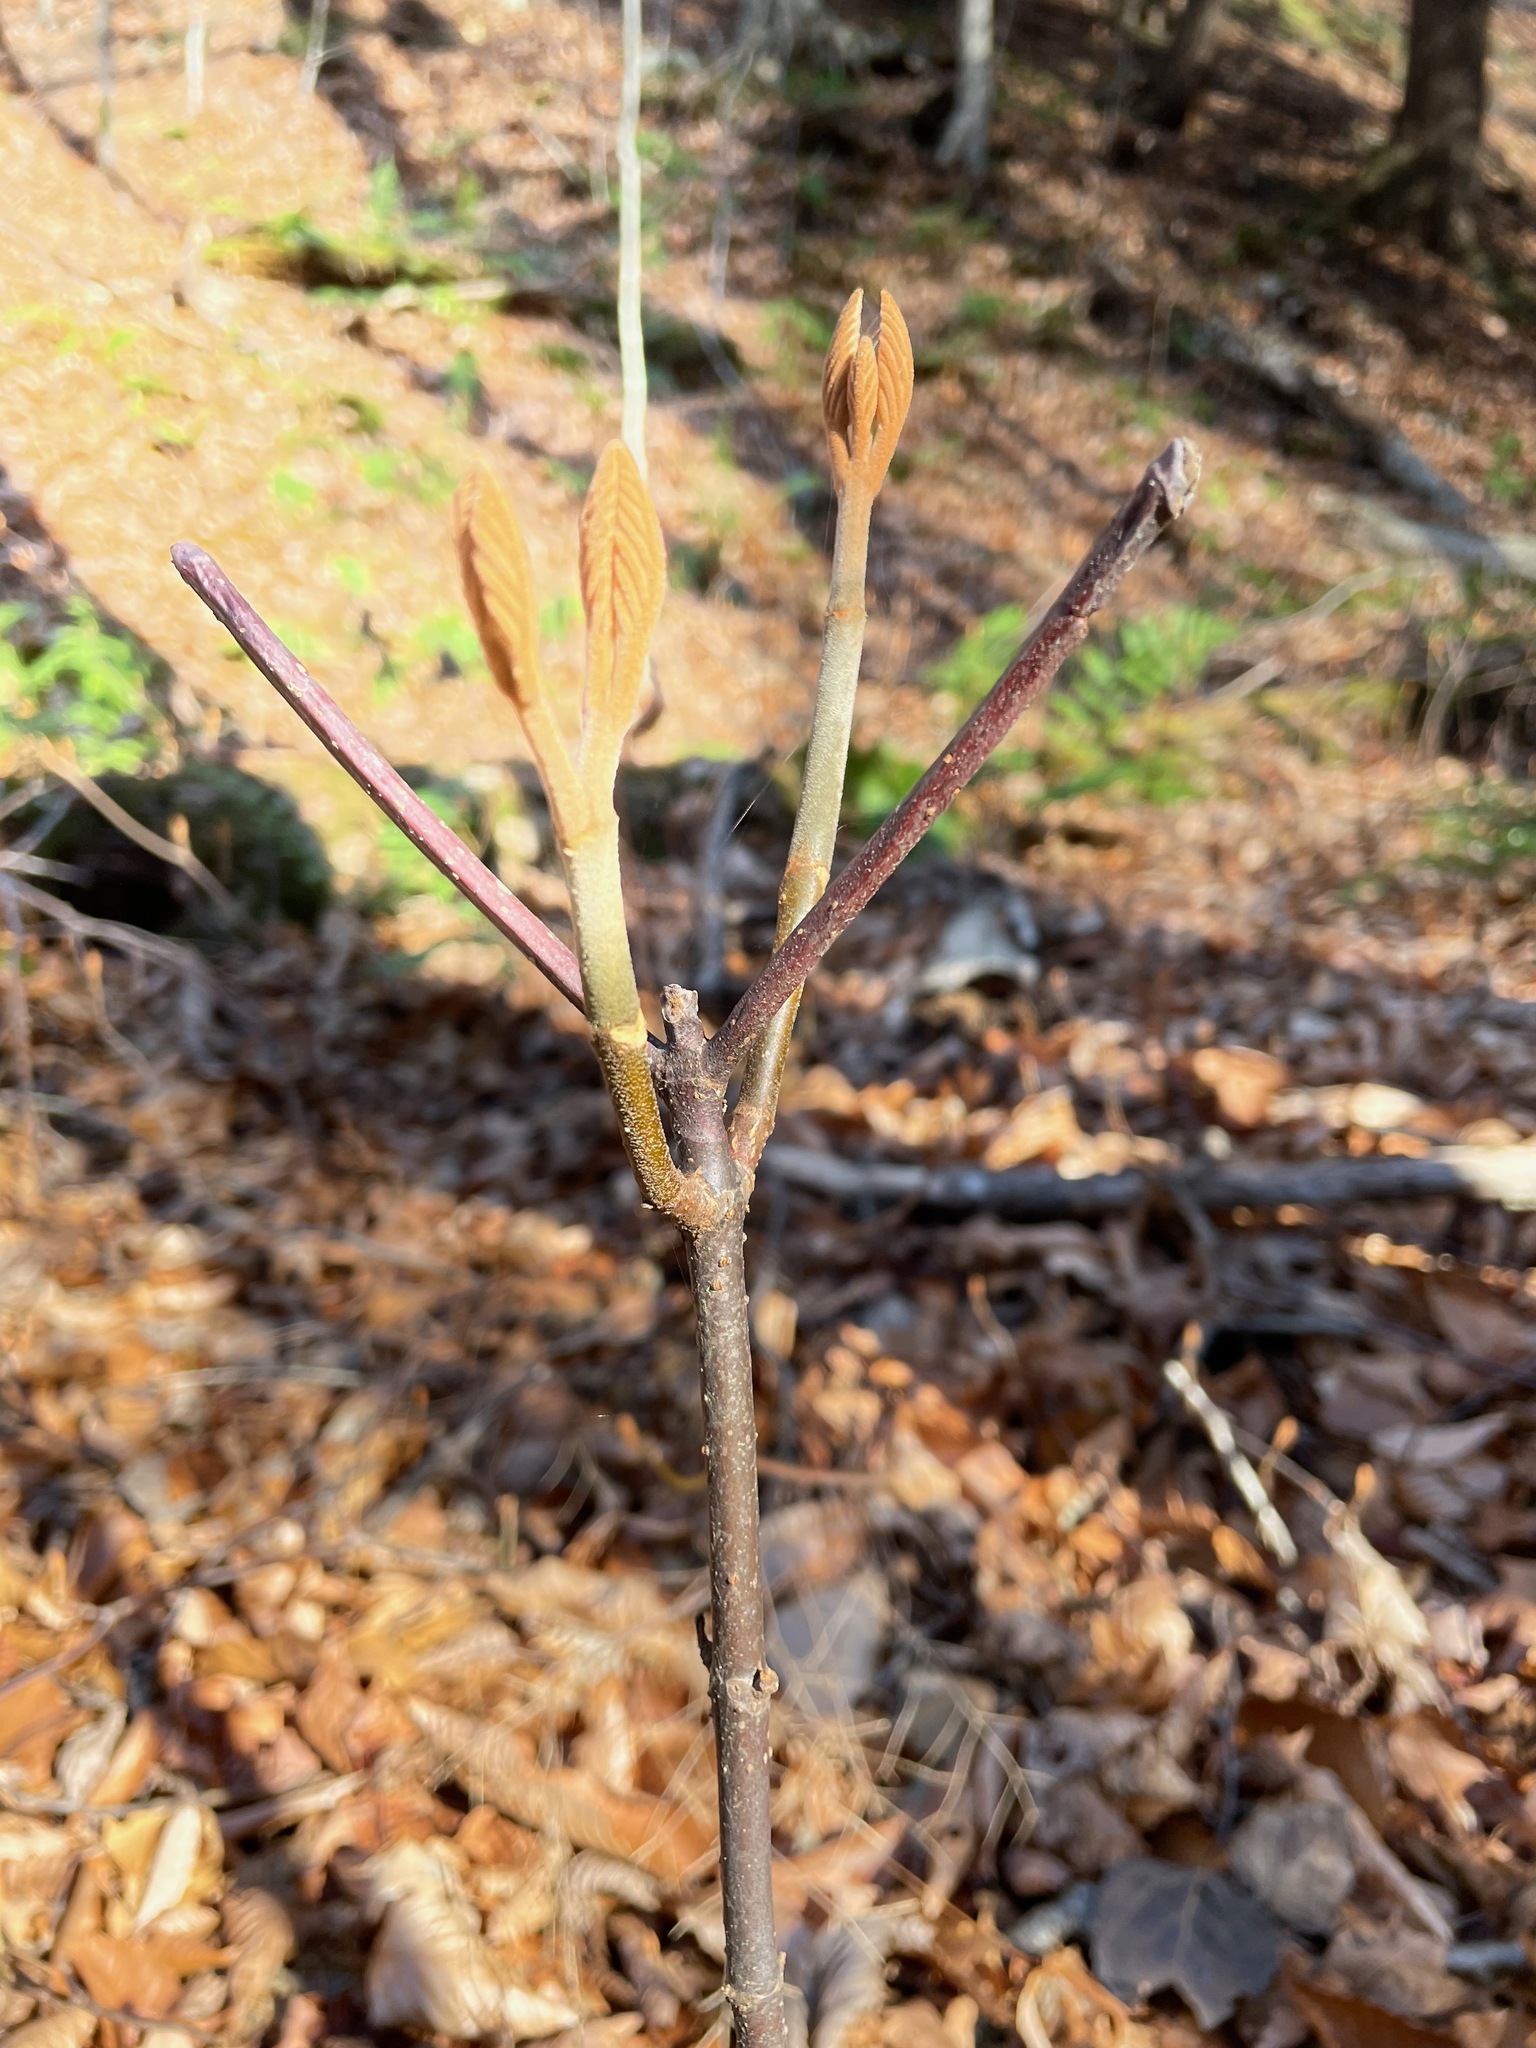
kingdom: Plantae
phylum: Tracheophyta
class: Magnoliopsida
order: Dipsacales
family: Viburnaceae
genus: Viburnum
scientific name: Viburnum lantanoides
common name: Hobblebush
